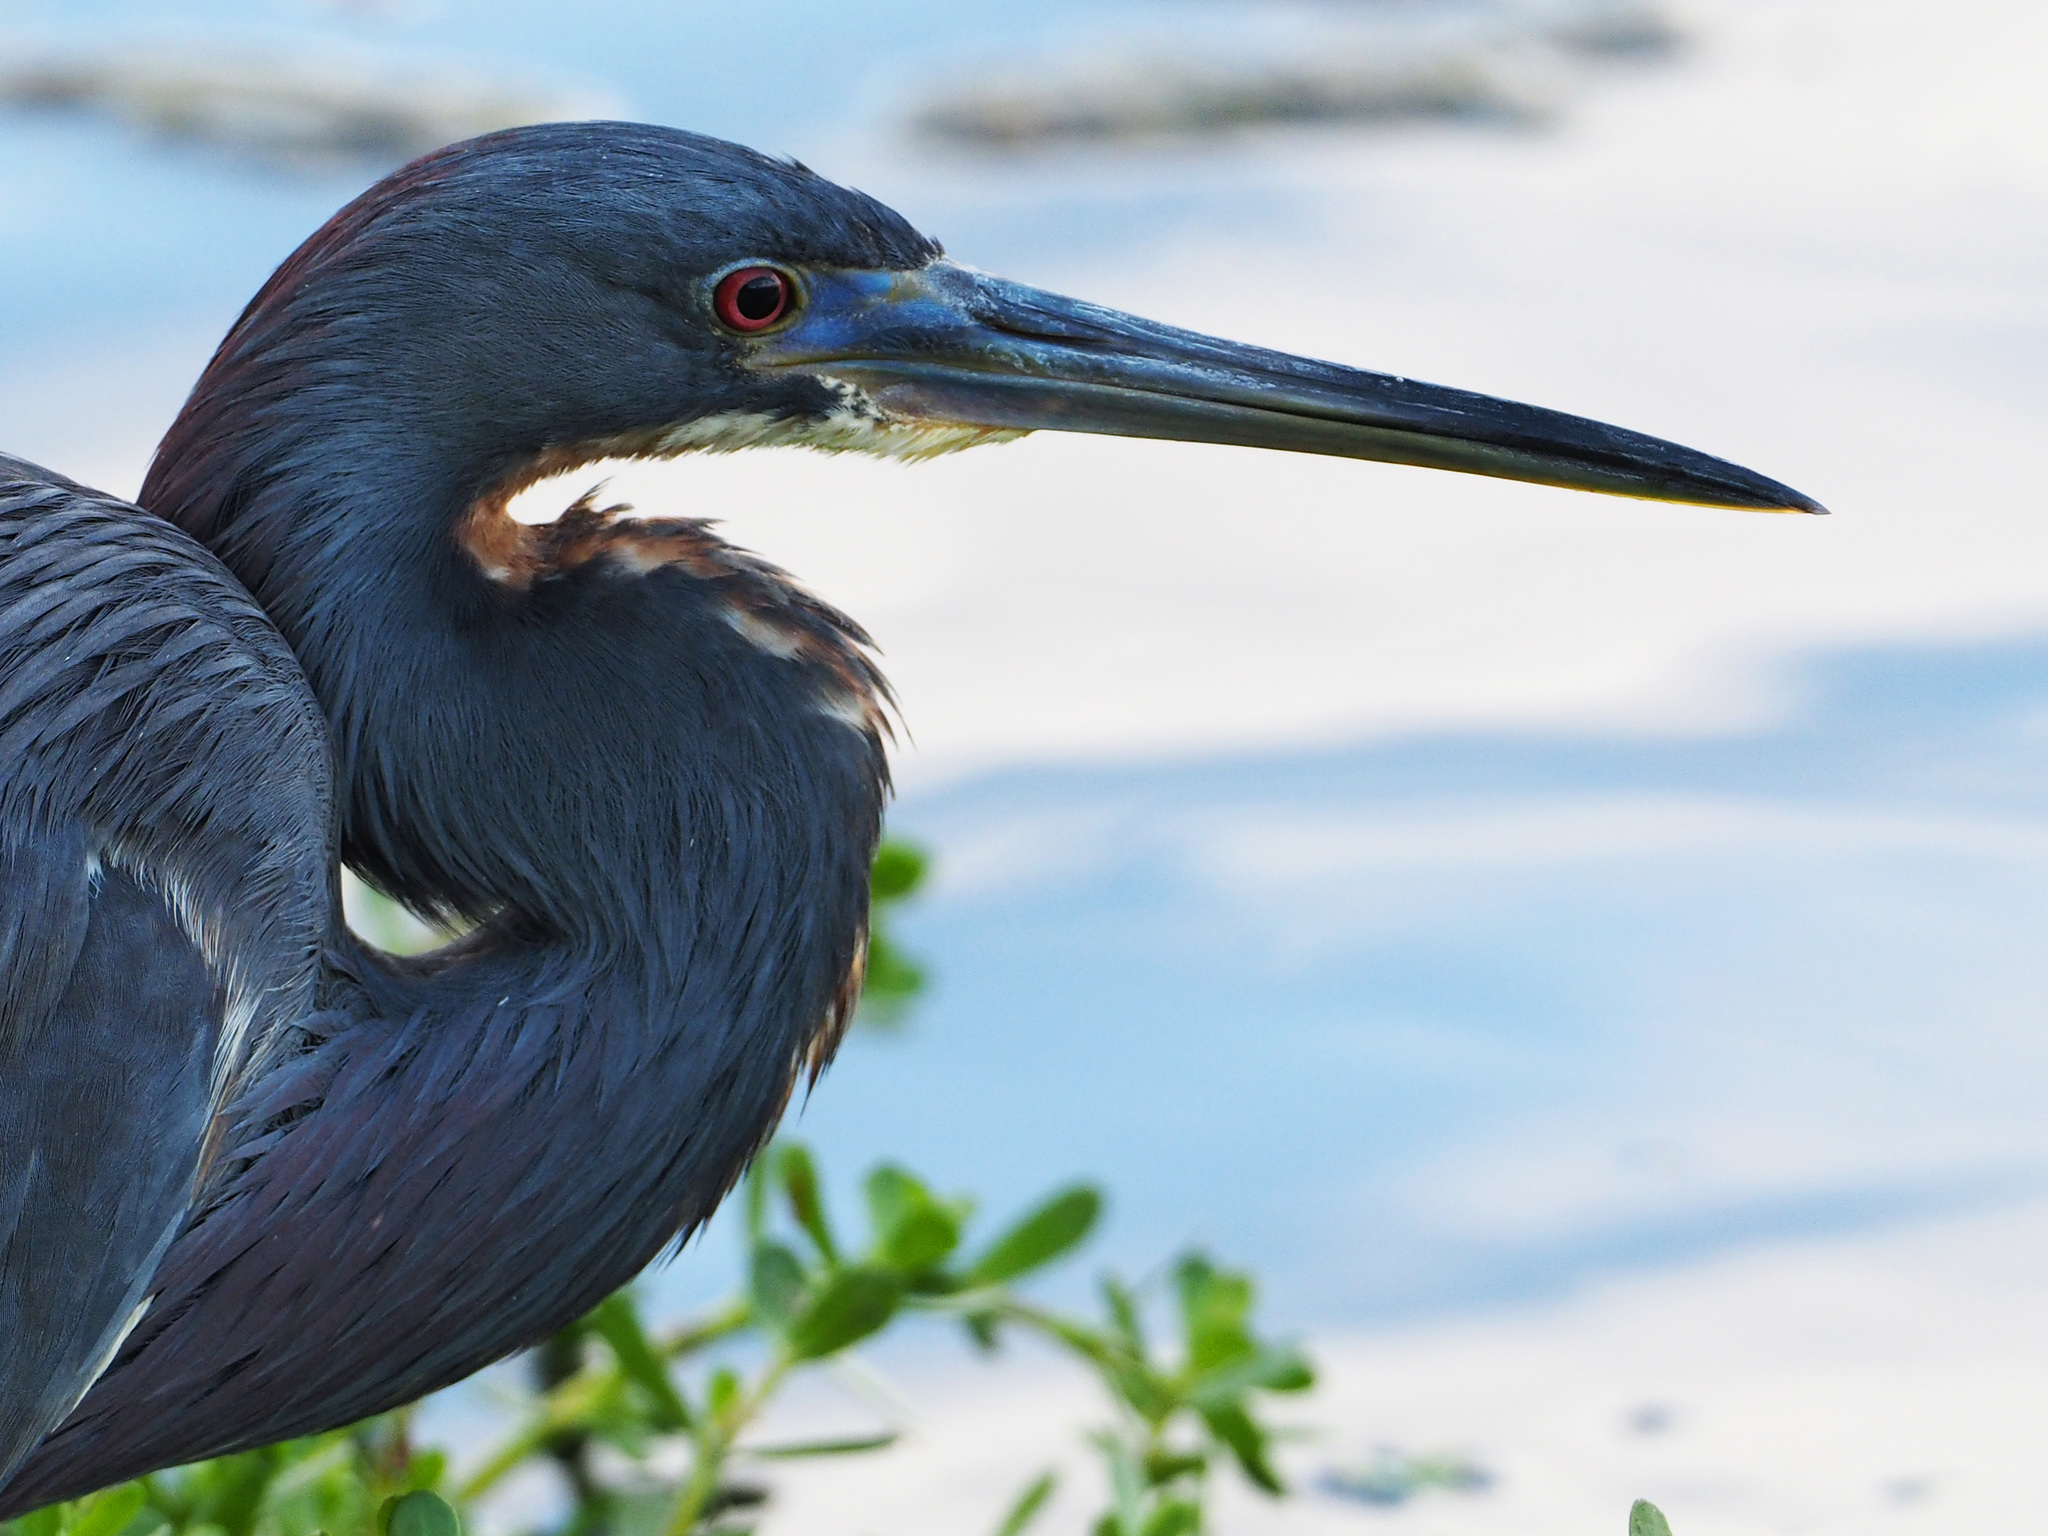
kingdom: Animalia
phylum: Chordata
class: Aves
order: Pelecaniformes
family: Ardeidae
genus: Egretta
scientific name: Egretta tricolor
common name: Tricolored heron
